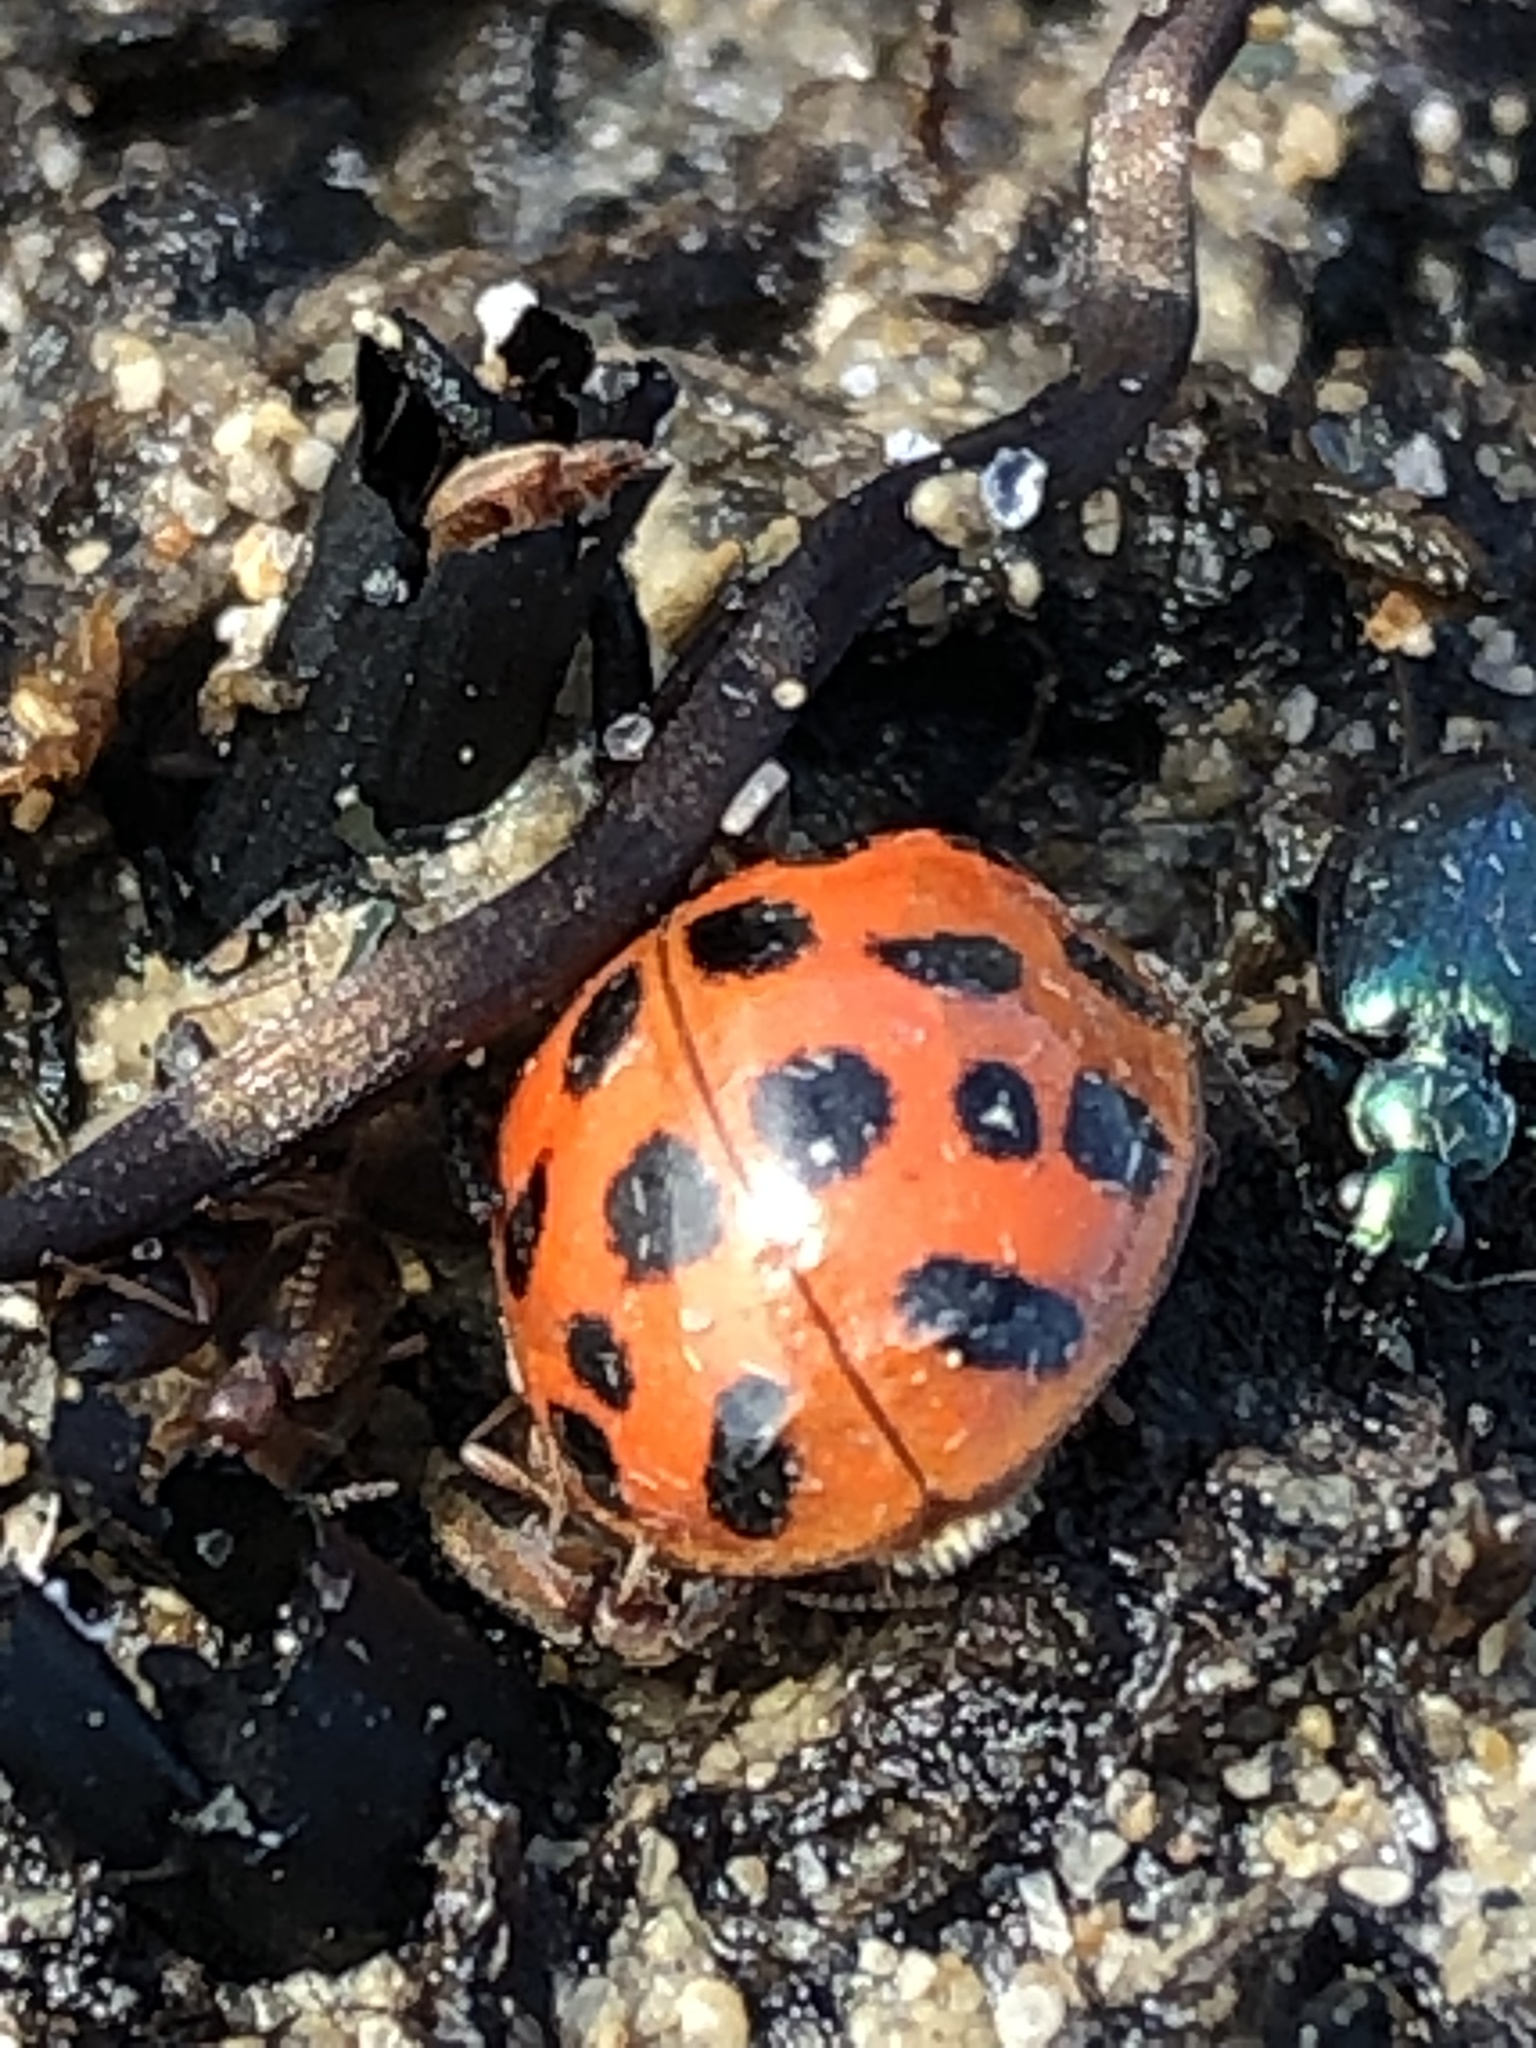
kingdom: Animalia
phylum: Arthropoda
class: Insecta
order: Coleoptera
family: Coccinellidae
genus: Harmonia
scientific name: Harmonia axyridis
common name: Harlequin ladybird
